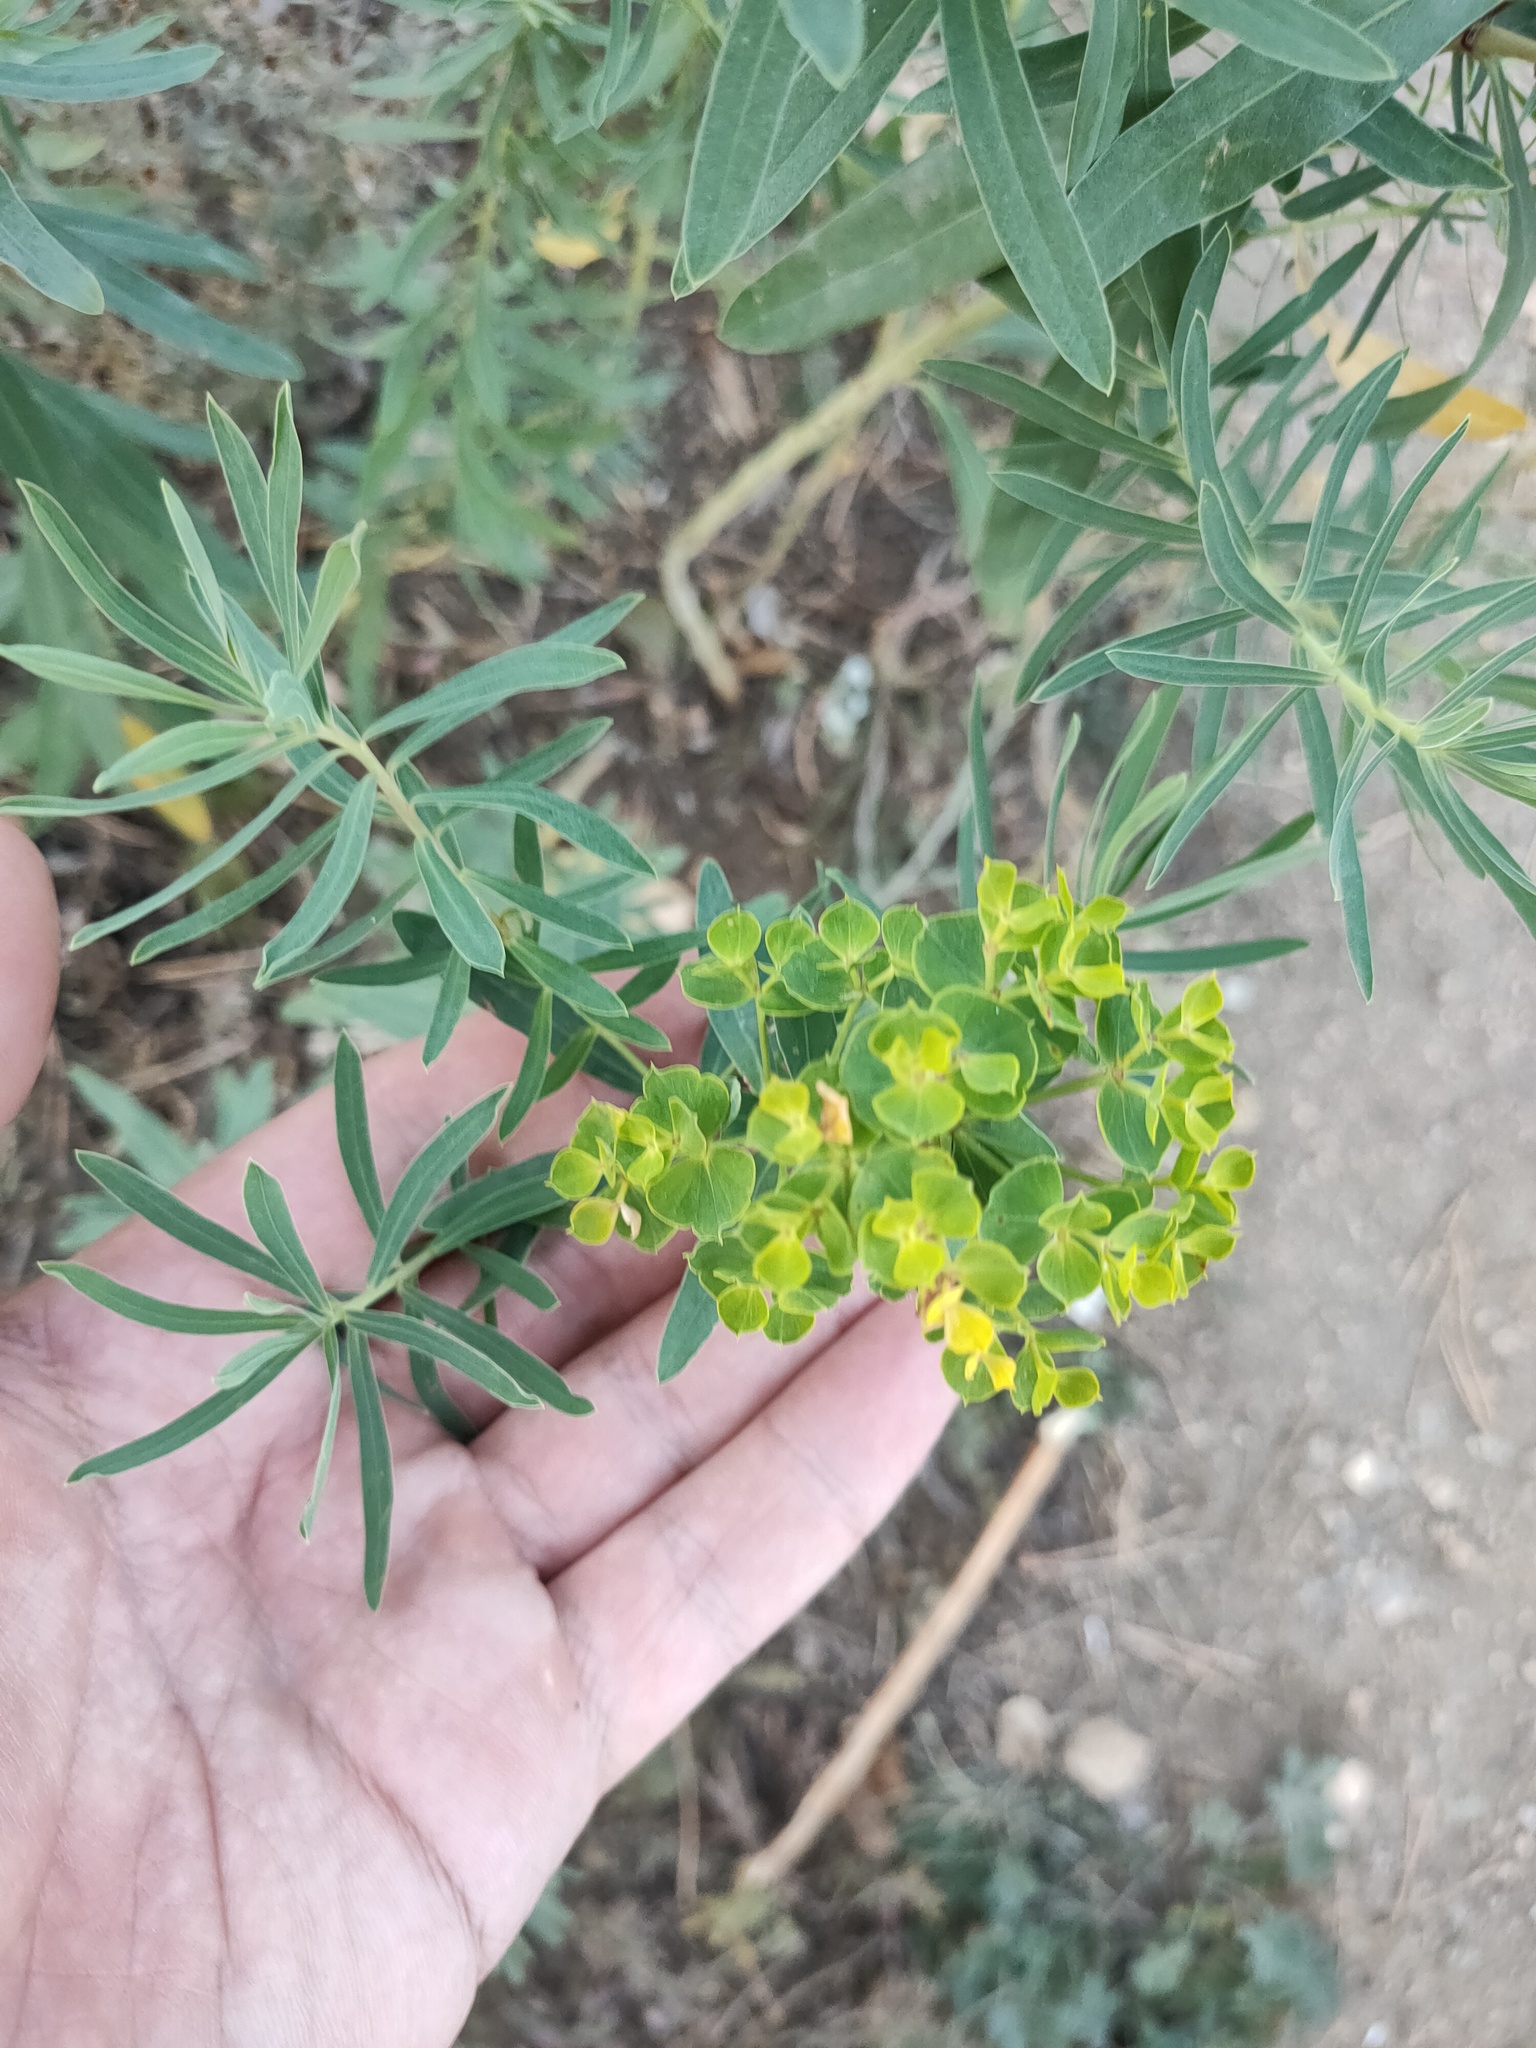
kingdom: Plantae
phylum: Tracheophyta
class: Magnoliopsida
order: Malpighiales
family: Euphorbiaceae
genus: Euphorbia
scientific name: Euphorbia virgata
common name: Leafy spurge
